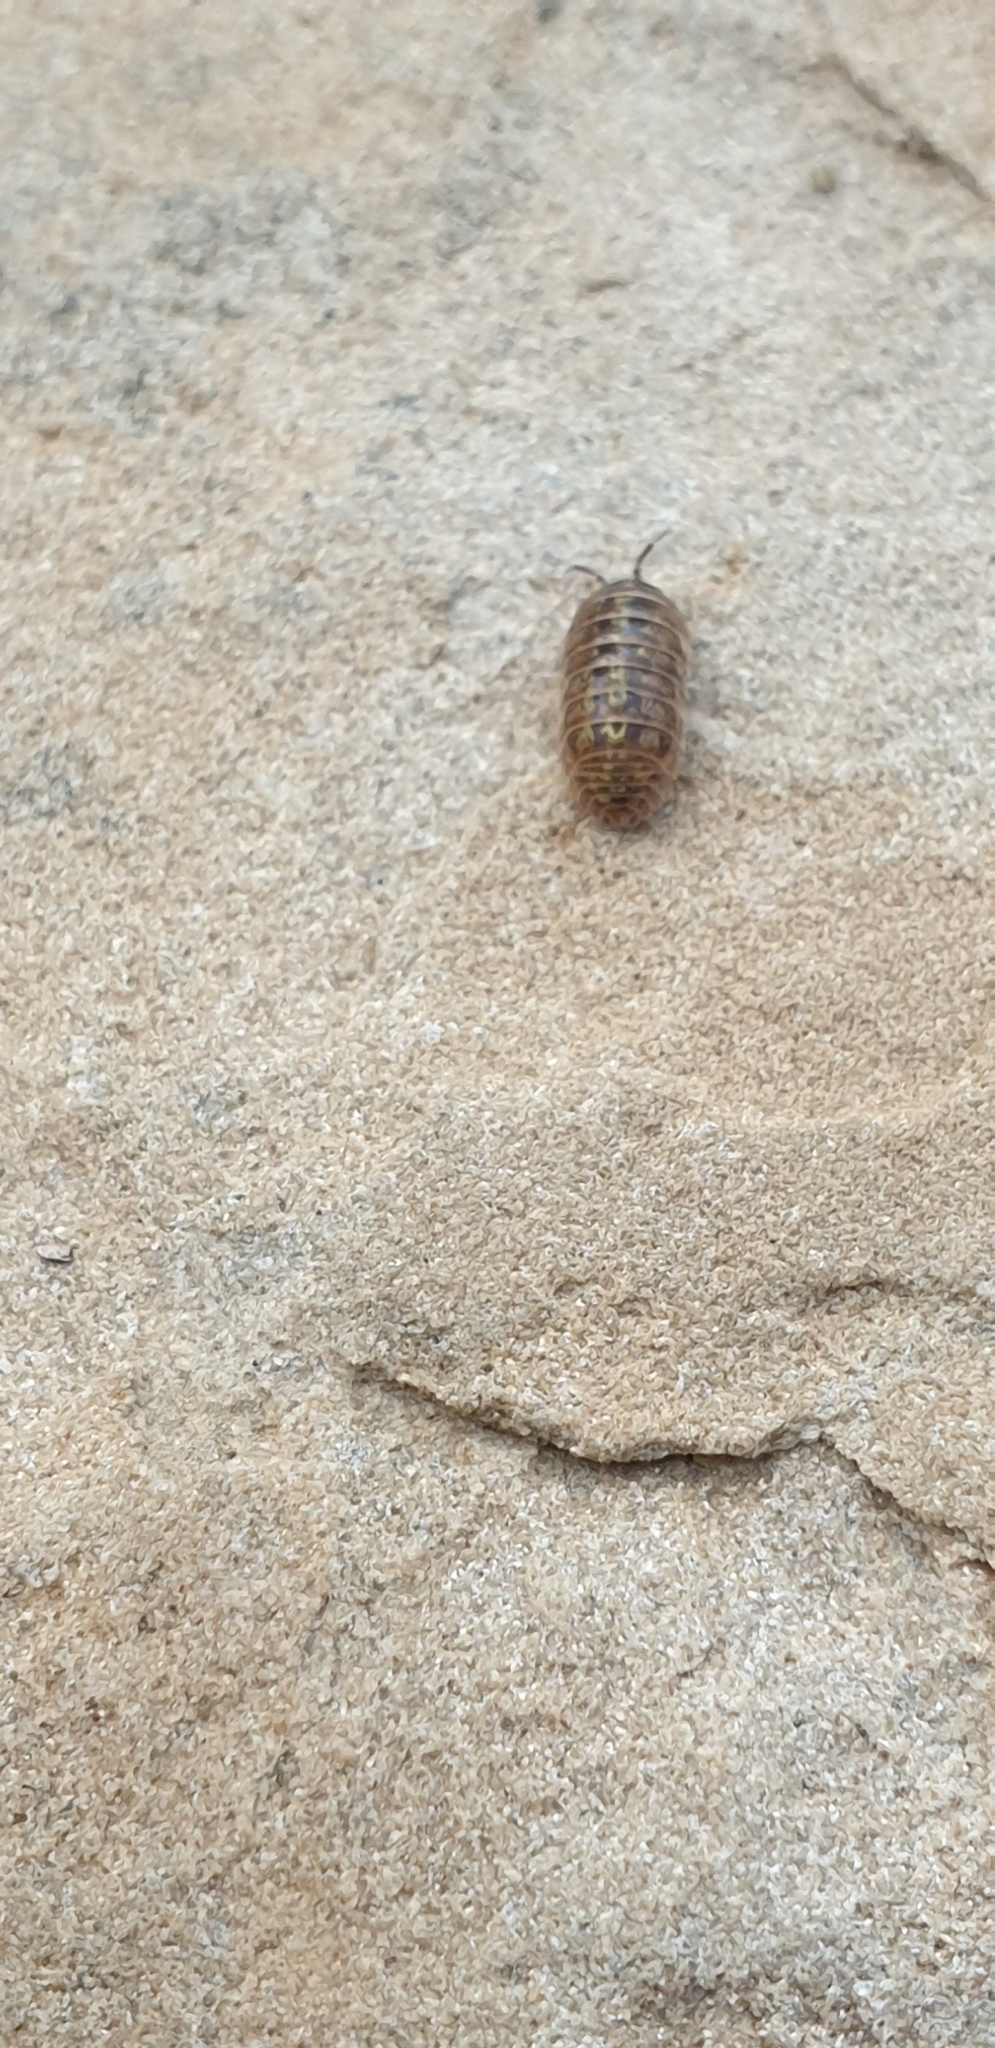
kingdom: Animalia
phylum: Arthropoda
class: Malacostraca
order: Isopoda
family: Armadillidiidae
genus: Armadillidium
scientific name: Armadillidium vulgare
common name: Common pill woodlouse
